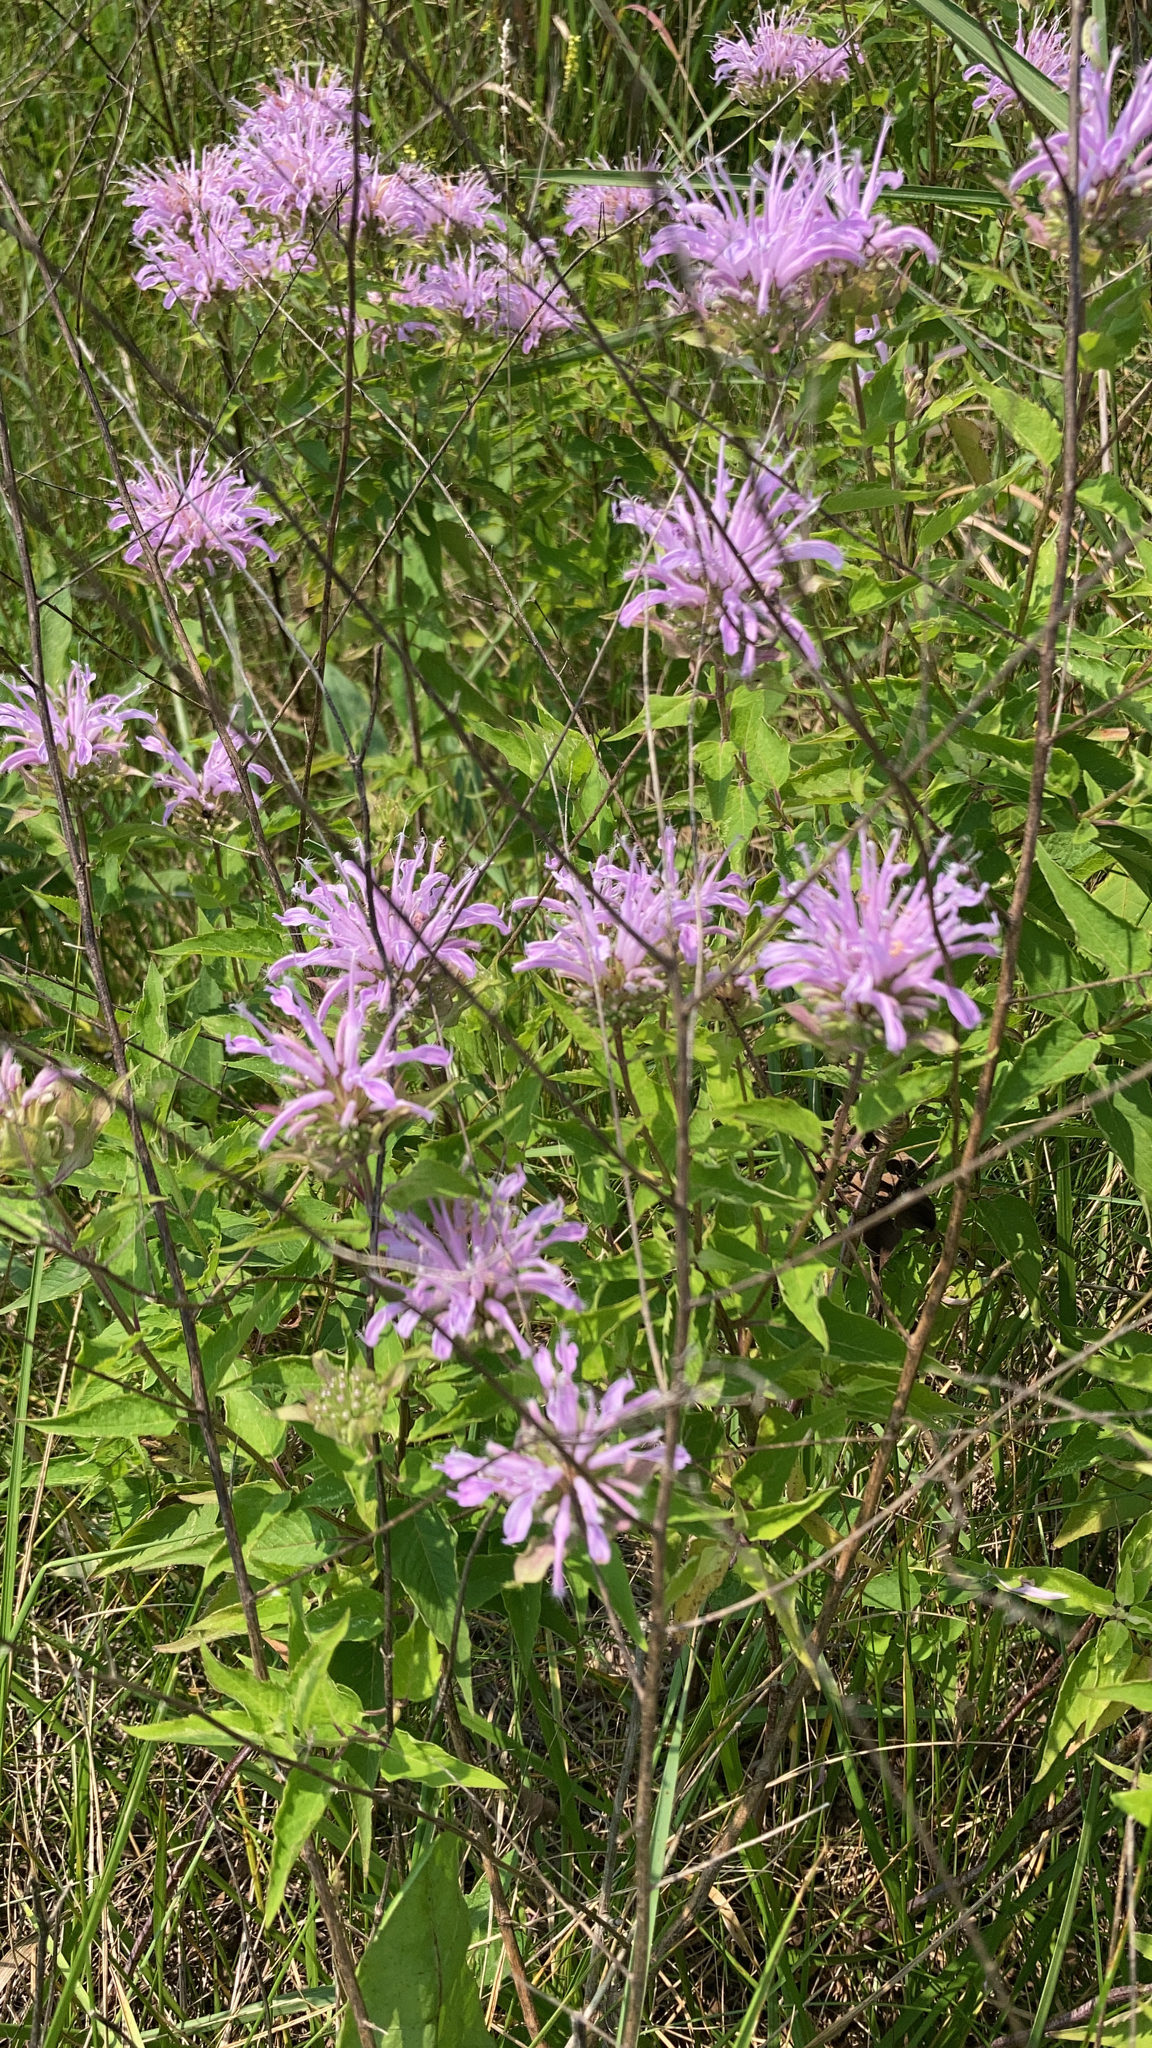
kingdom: Plantae
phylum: Tracheophyta
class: Magnoliopsida
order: Lamiales
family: Lamiaceae
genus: Monarda
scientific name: Monarda fistulosa
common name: Purple beebalm
